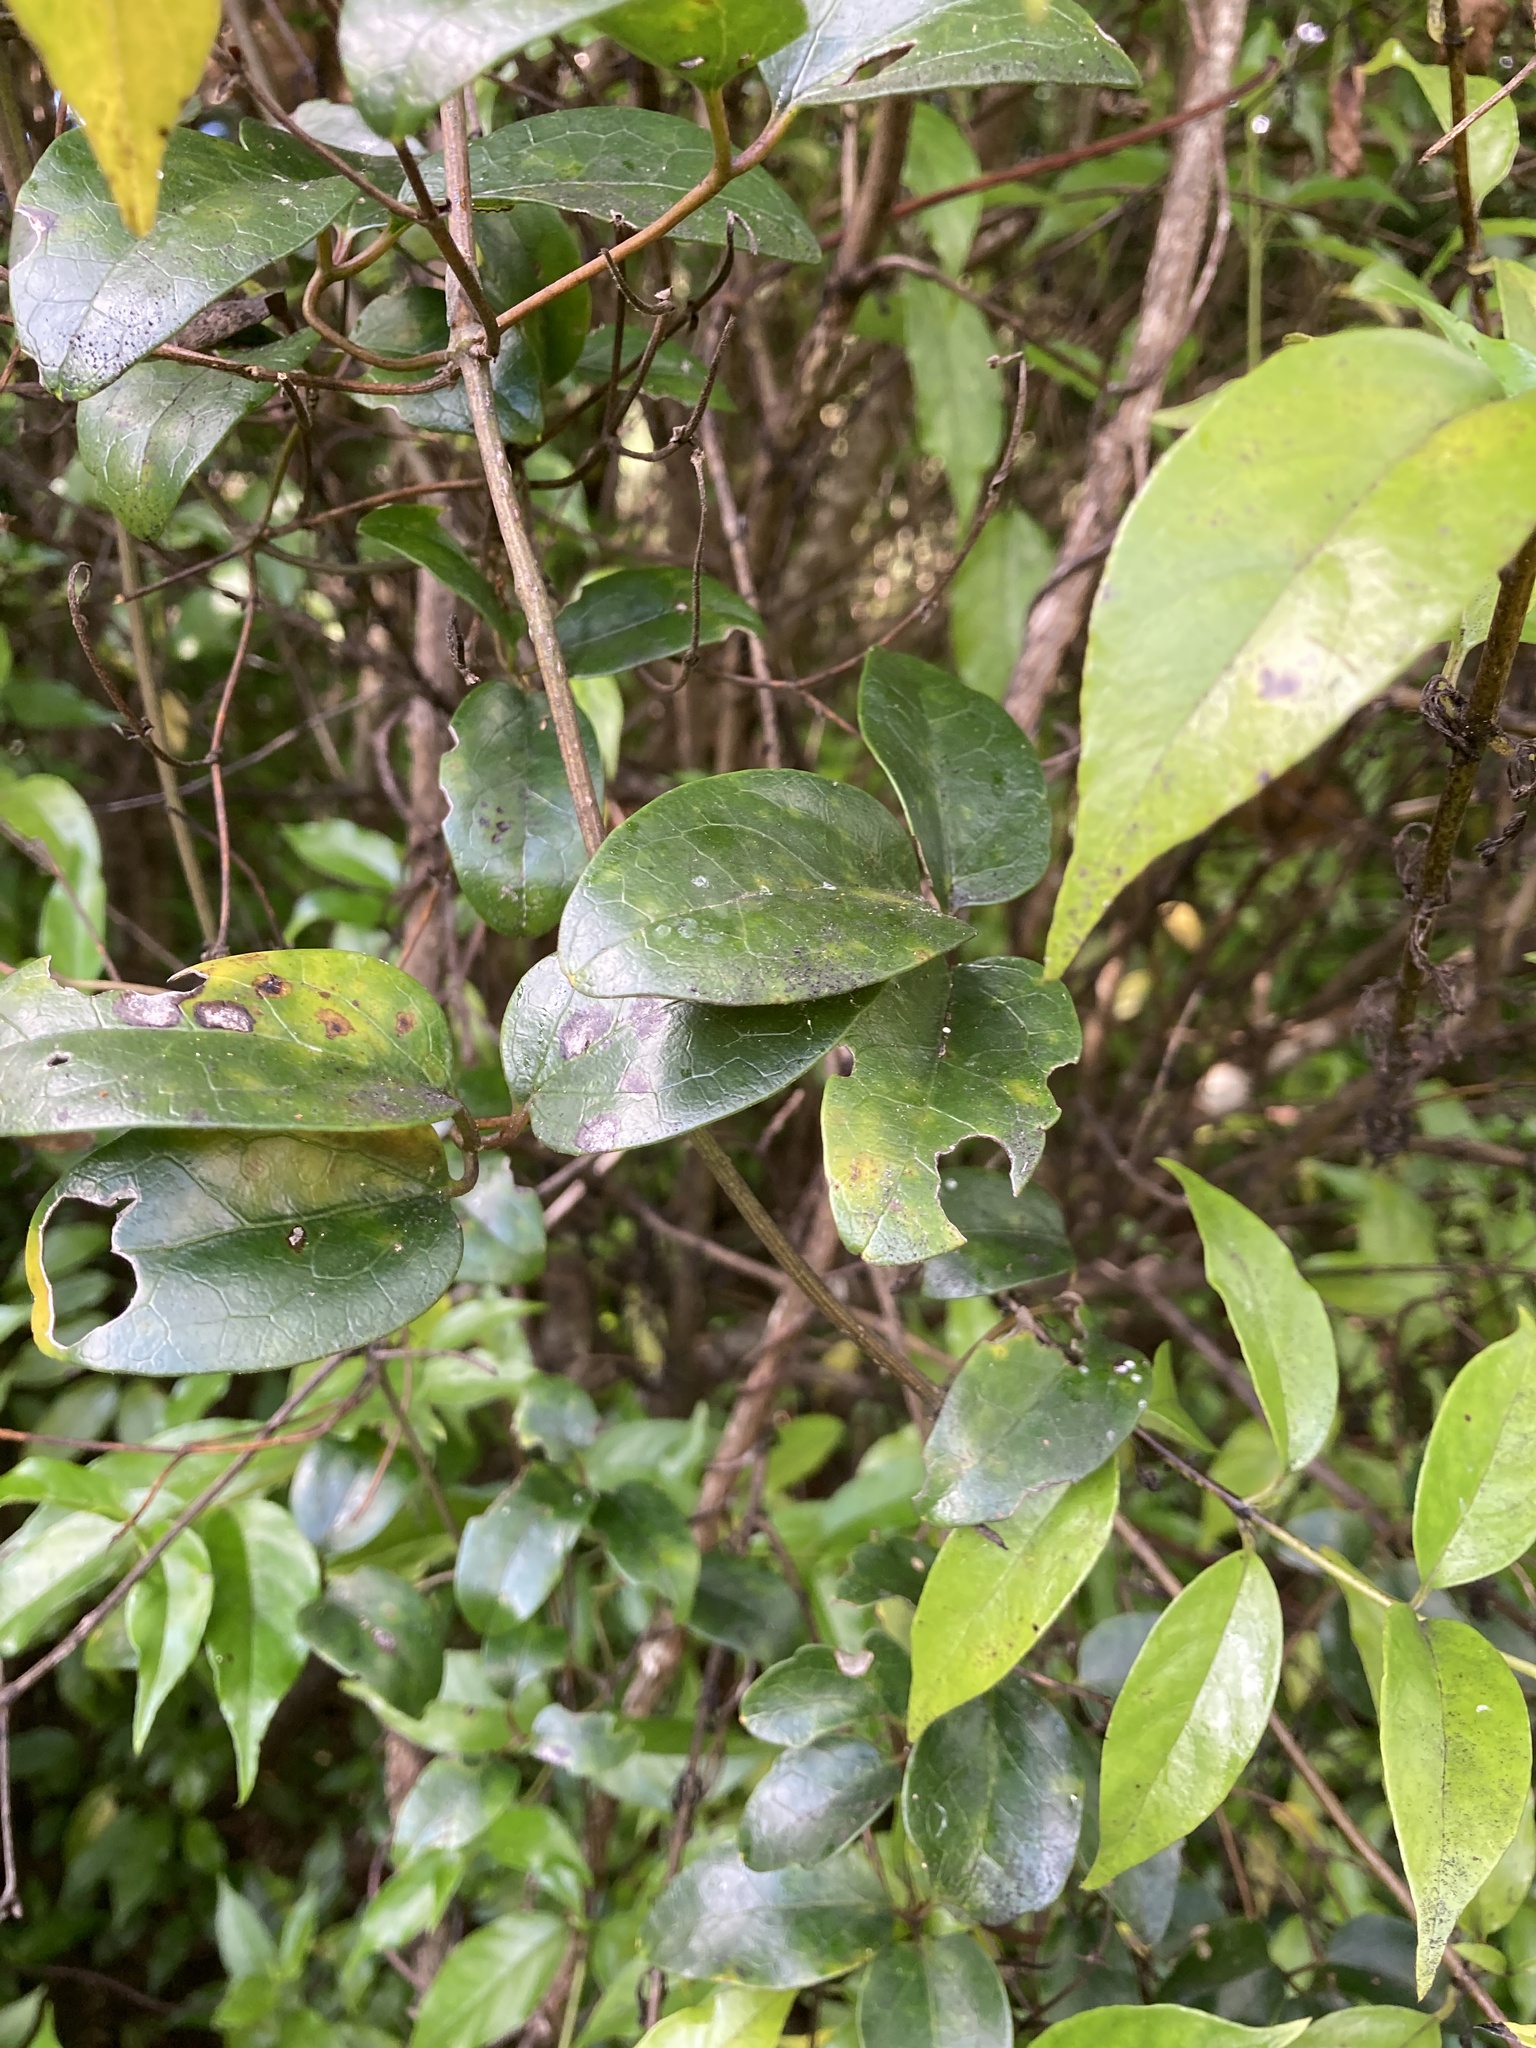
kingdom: Plantae
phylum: Tracheophyta
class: Magnoliopsida
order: Ranunculales
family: Ranunculaceae
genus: Clematis
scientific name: Clematis paniculata
